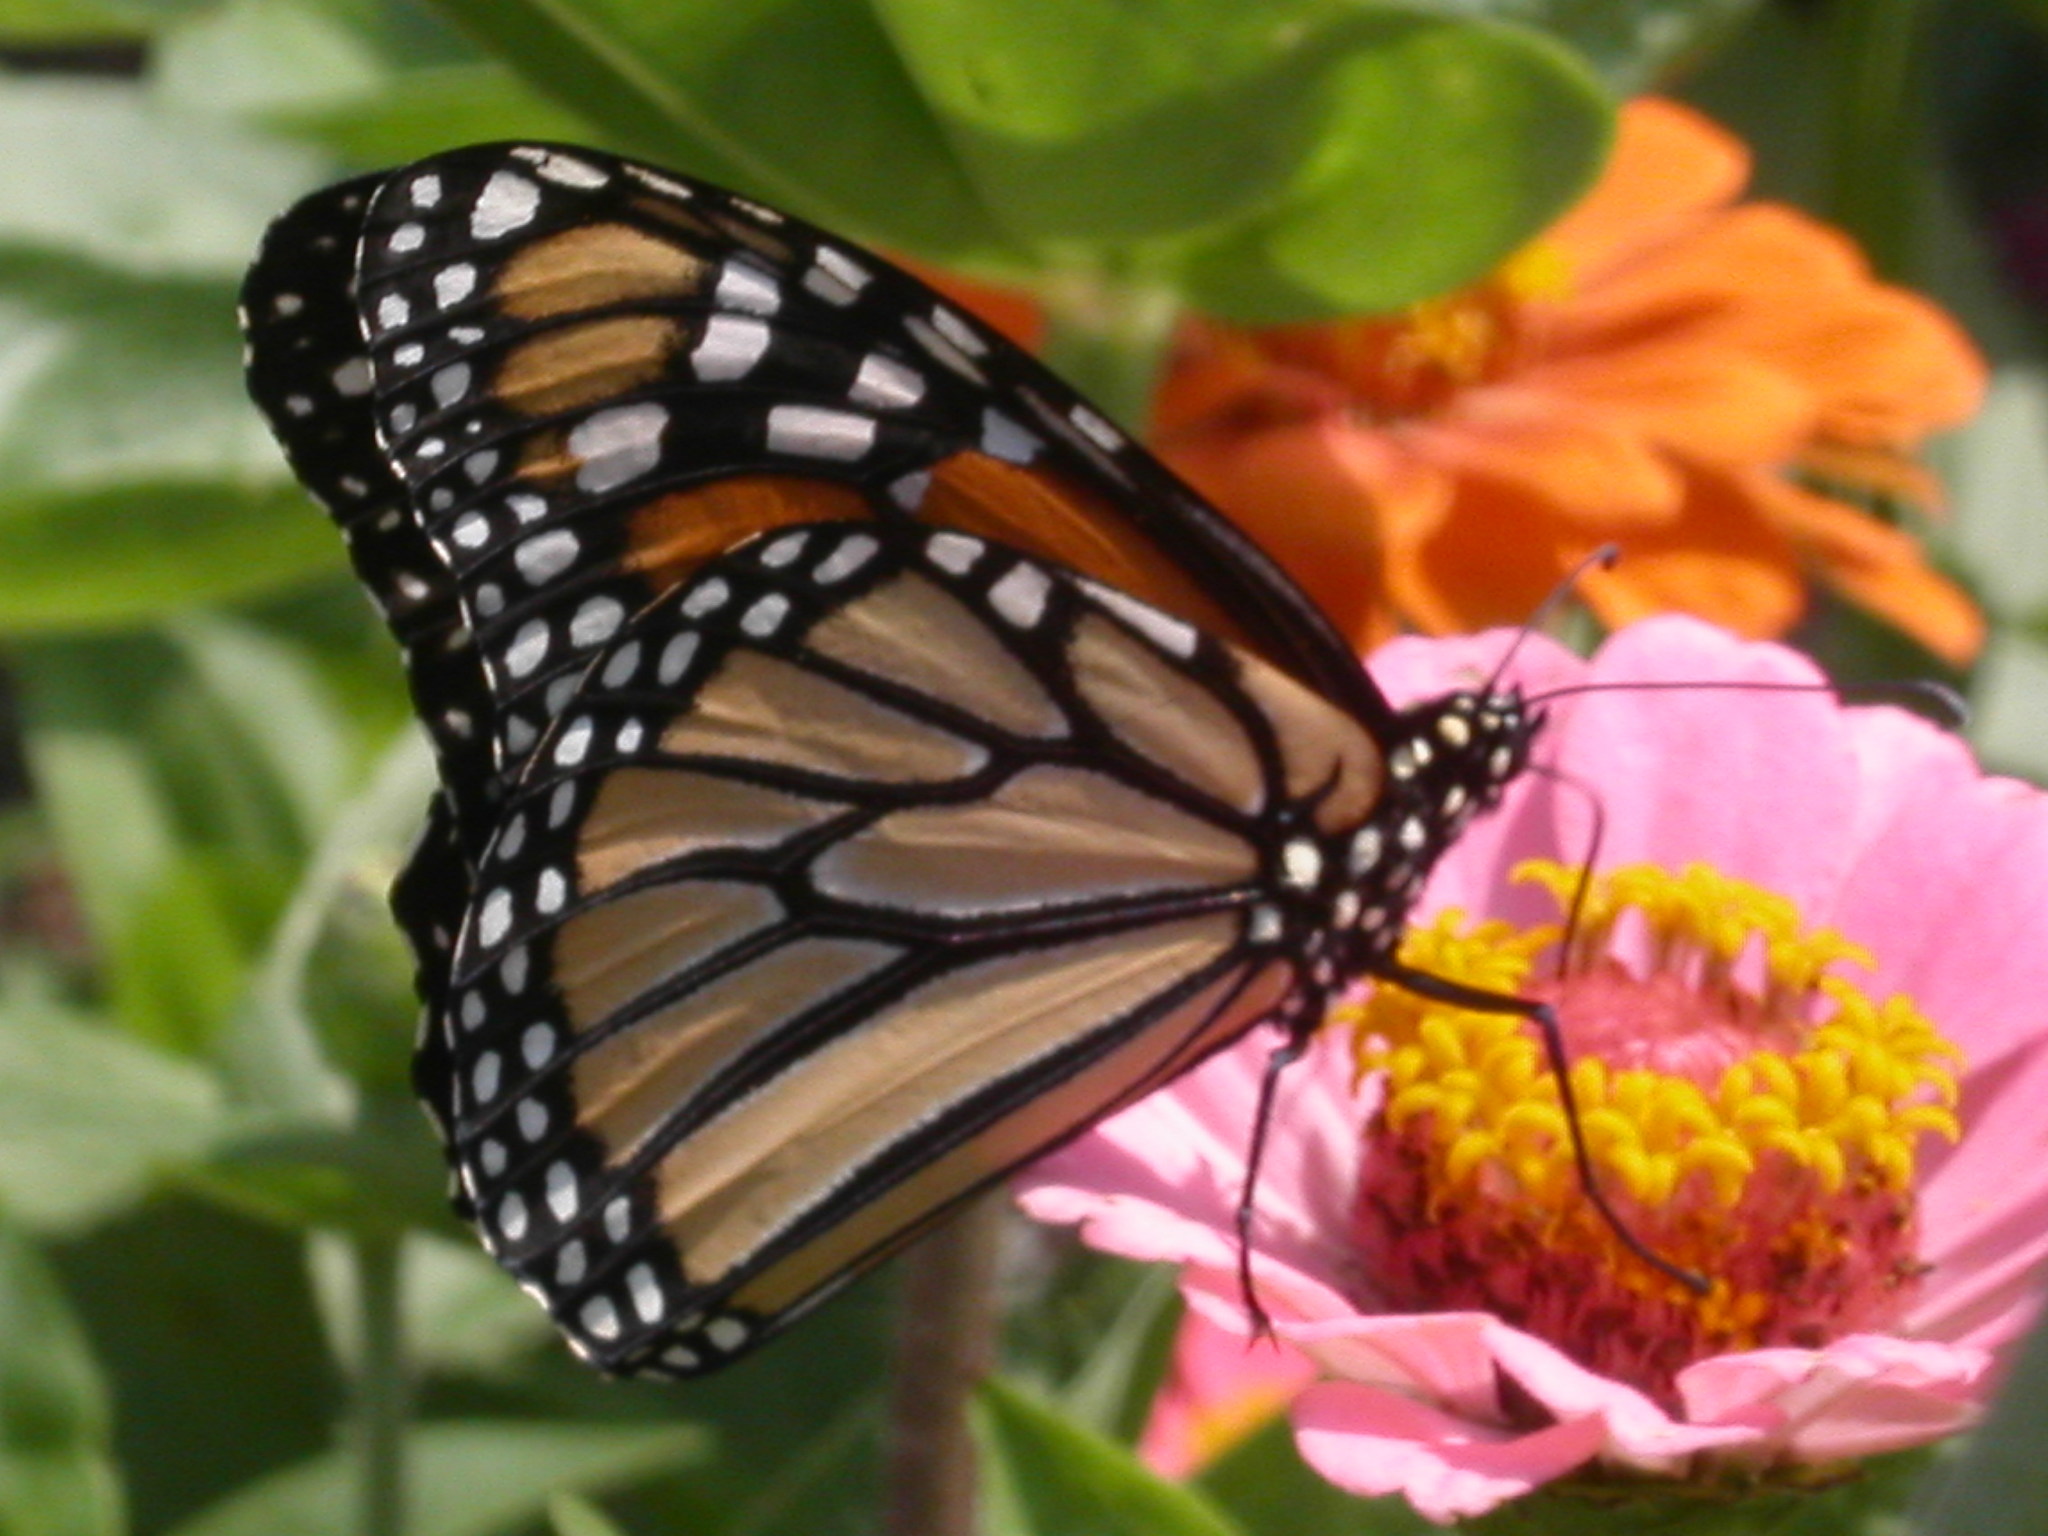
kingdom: Animalia
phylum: Arthropoda
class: Insecta
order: Lepidoptera
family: Nymphalidae
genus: Danaus
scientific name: Danaus plexippus
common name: Monarch
